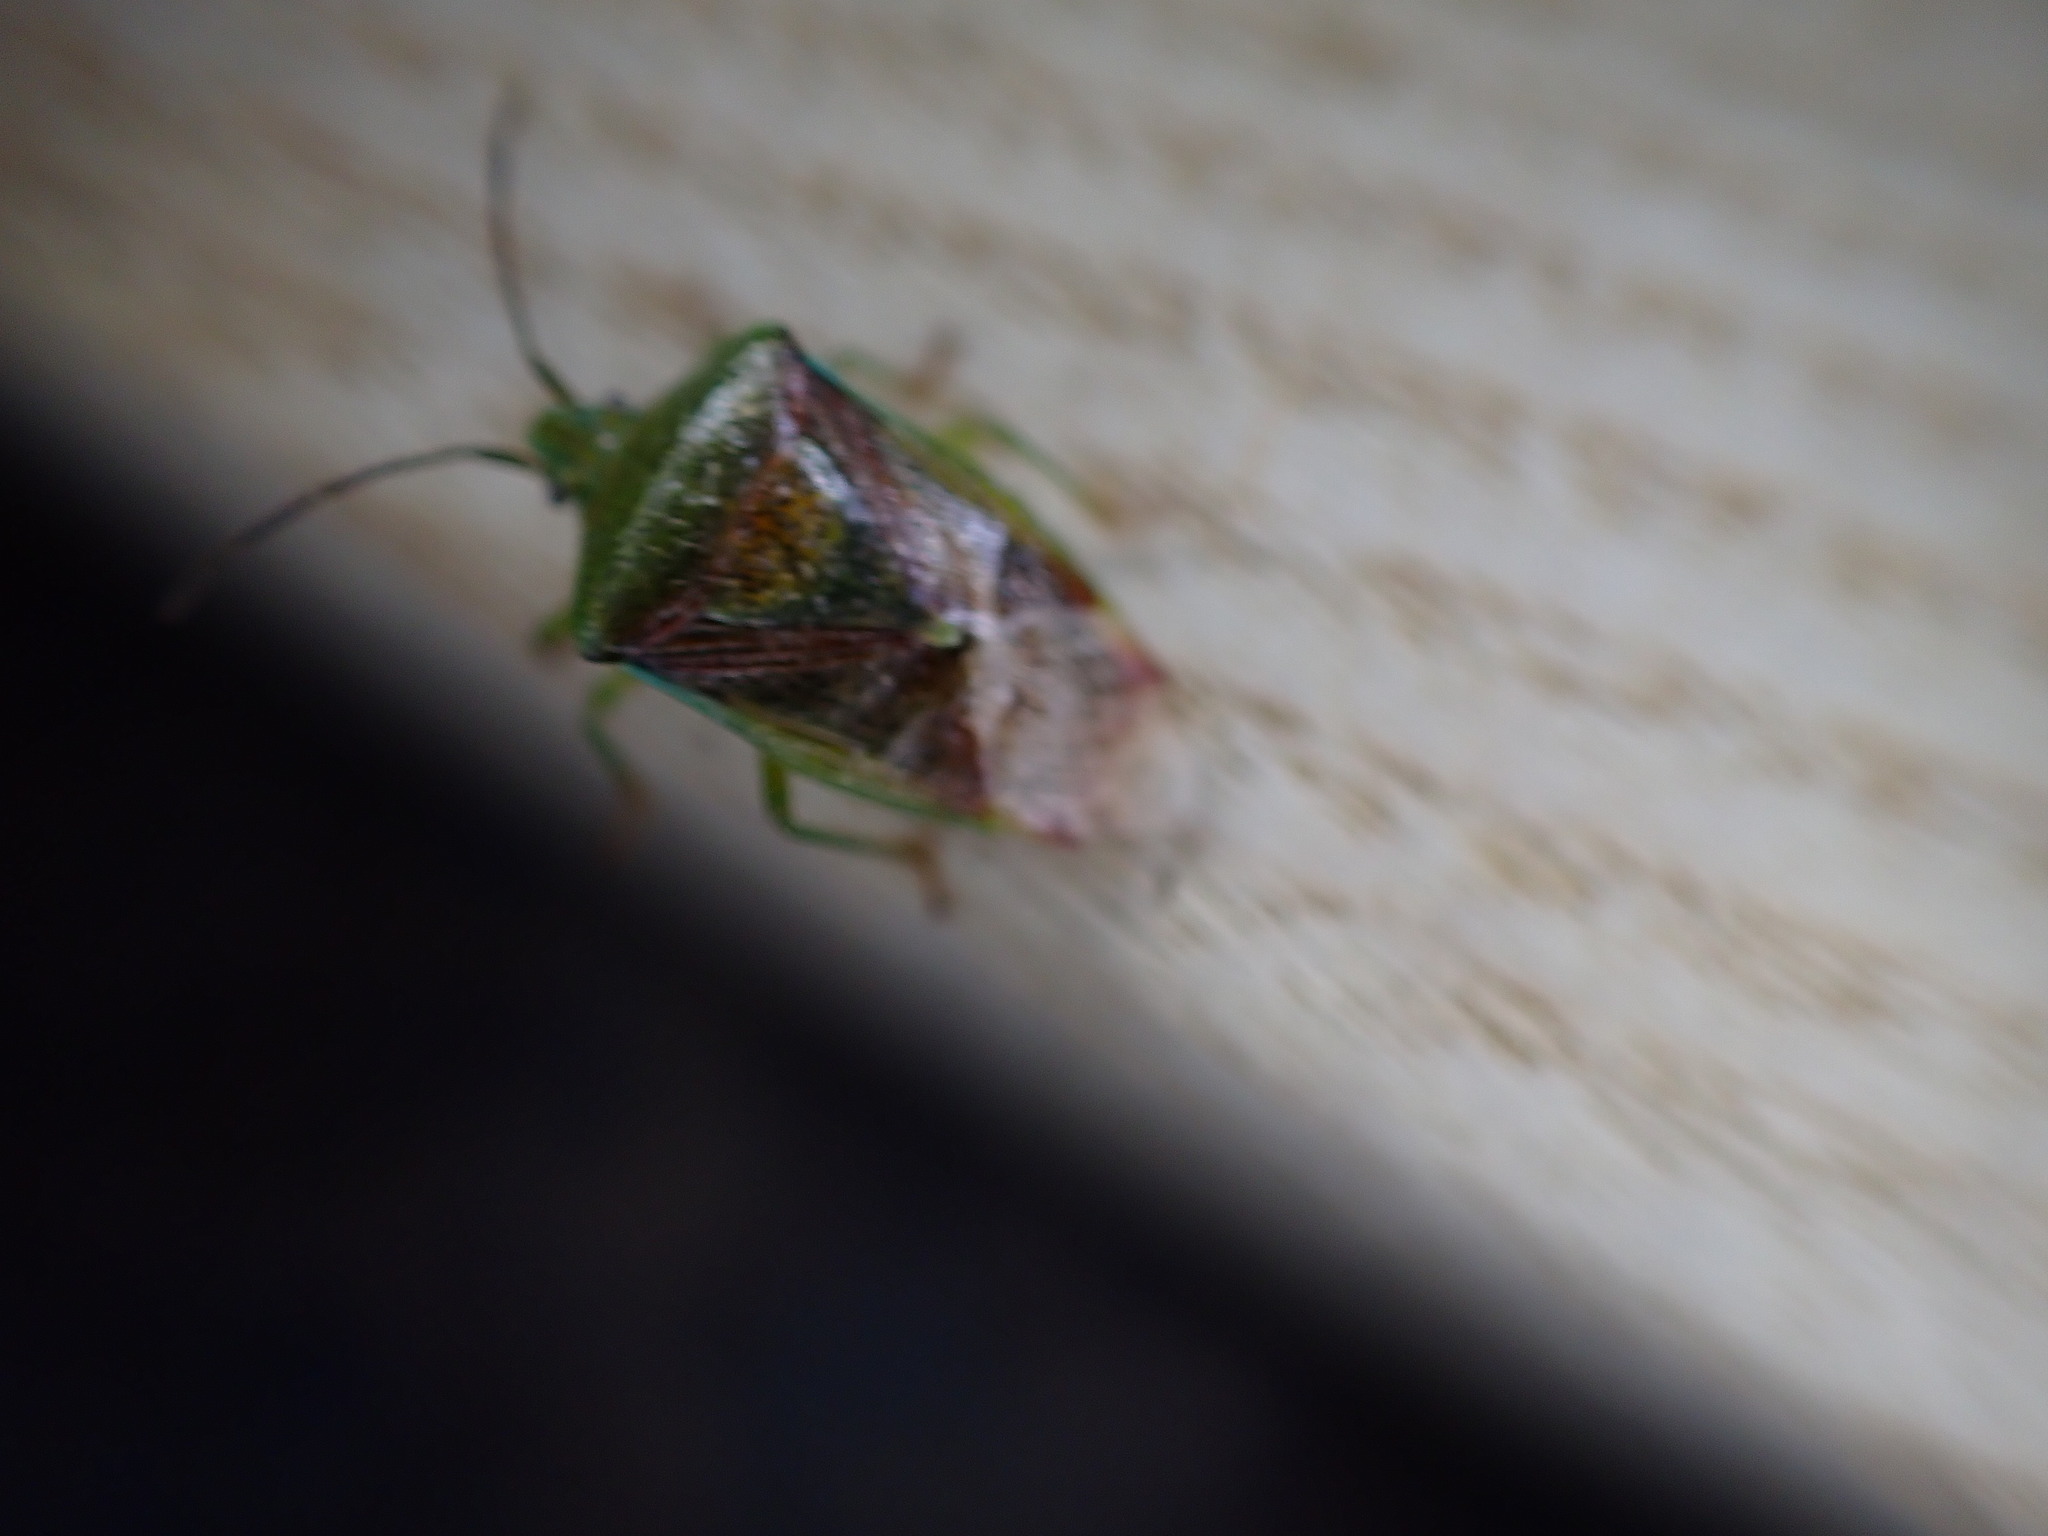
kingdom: Animalia
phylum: Arthropoda
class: Insecta
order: Hemiptera
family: Acanthosomatidae
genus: Elasmostethus
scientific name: Elasmostethus interstinctus
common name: Birch shieldbug
